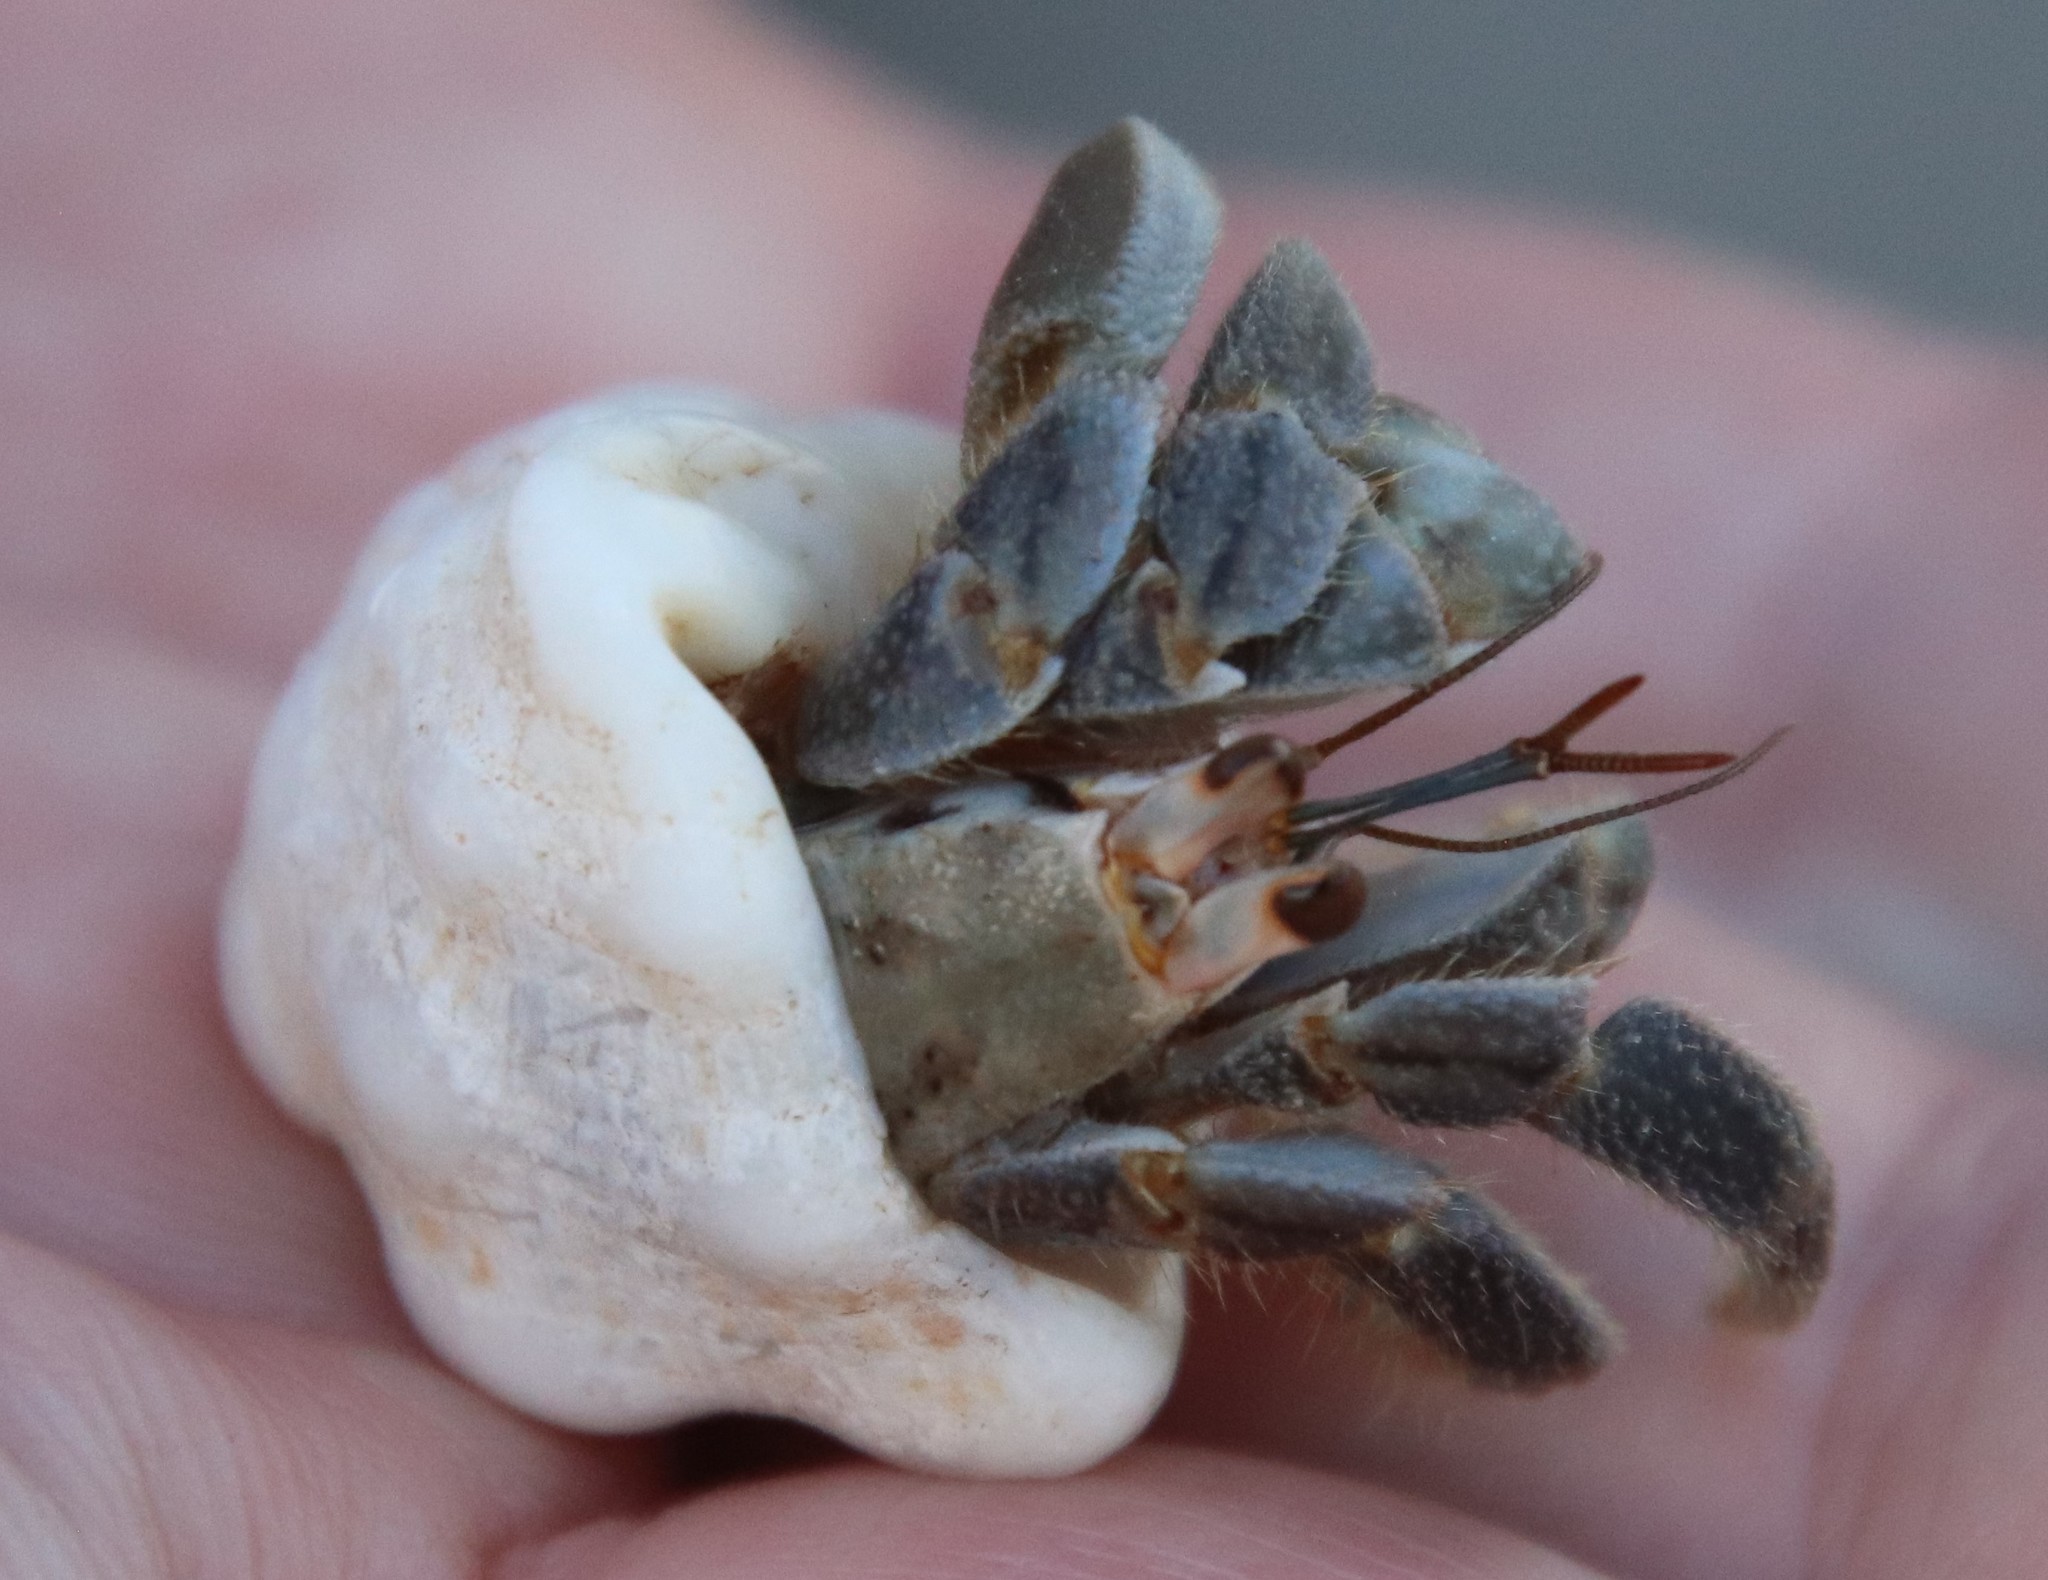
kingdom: Animalia
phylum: Arthropoda
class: Malacostraca
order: Decapoda
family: Coenobitidae
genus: Coenobita
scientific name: Coenobita compressus
